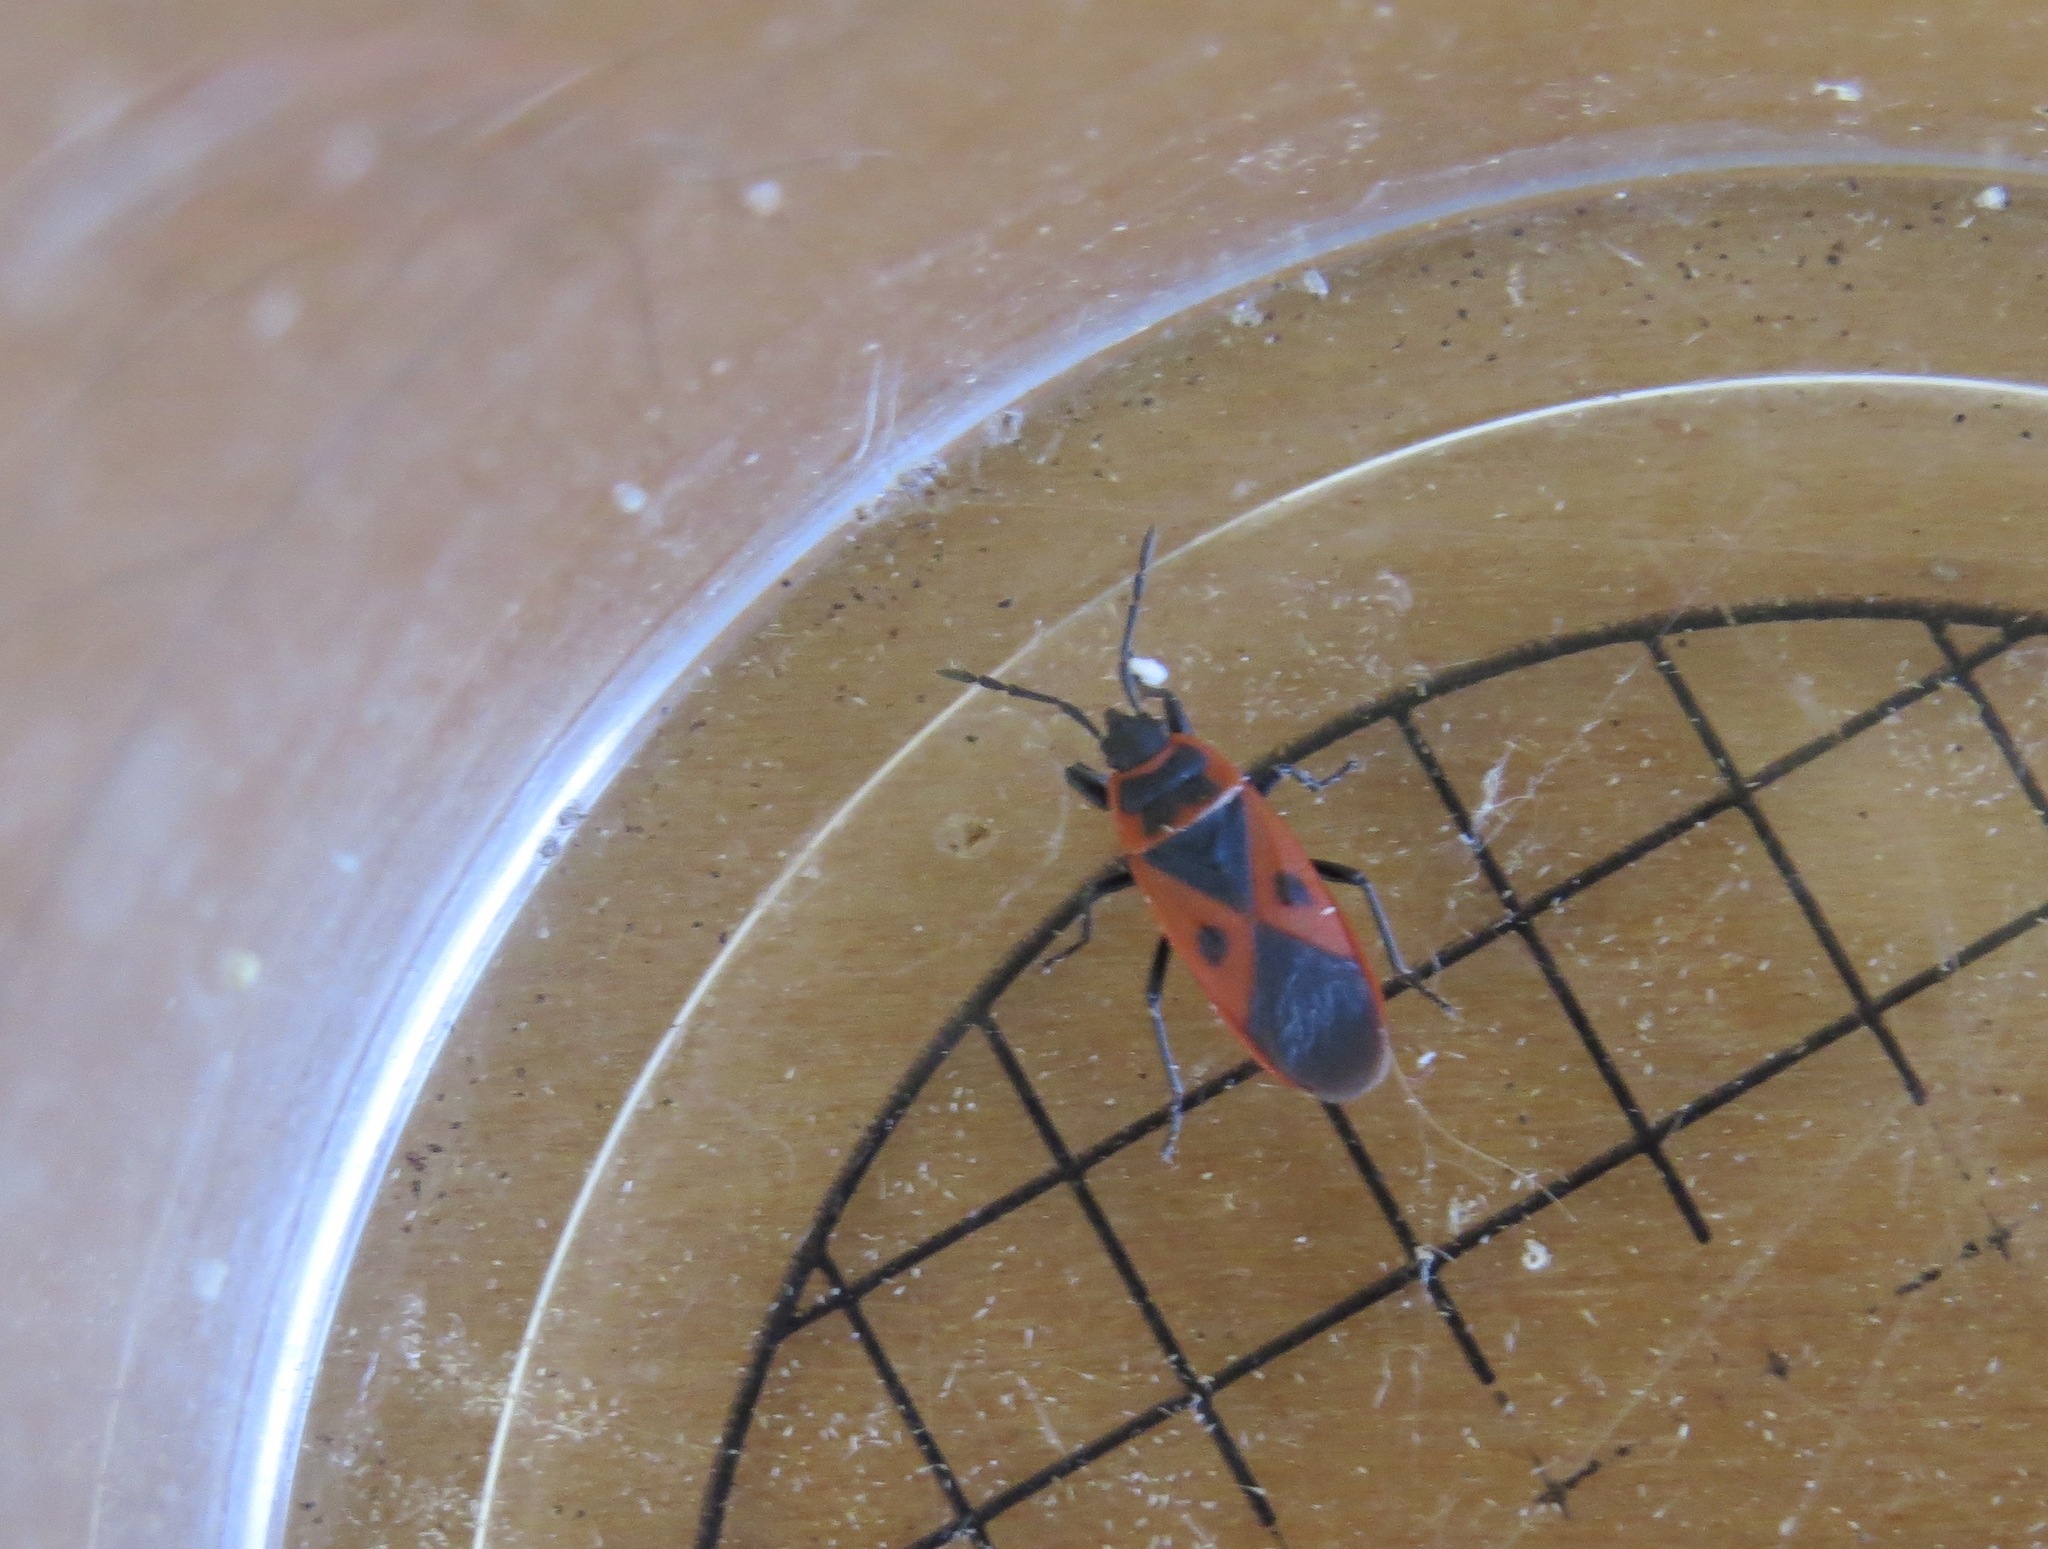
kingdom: Animalia
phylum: Arthropoda
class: Insecta
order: Hemiptera
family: Pyrrhocoridae
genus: Scantius
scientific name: Scantius aegyptius
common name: Red bug
